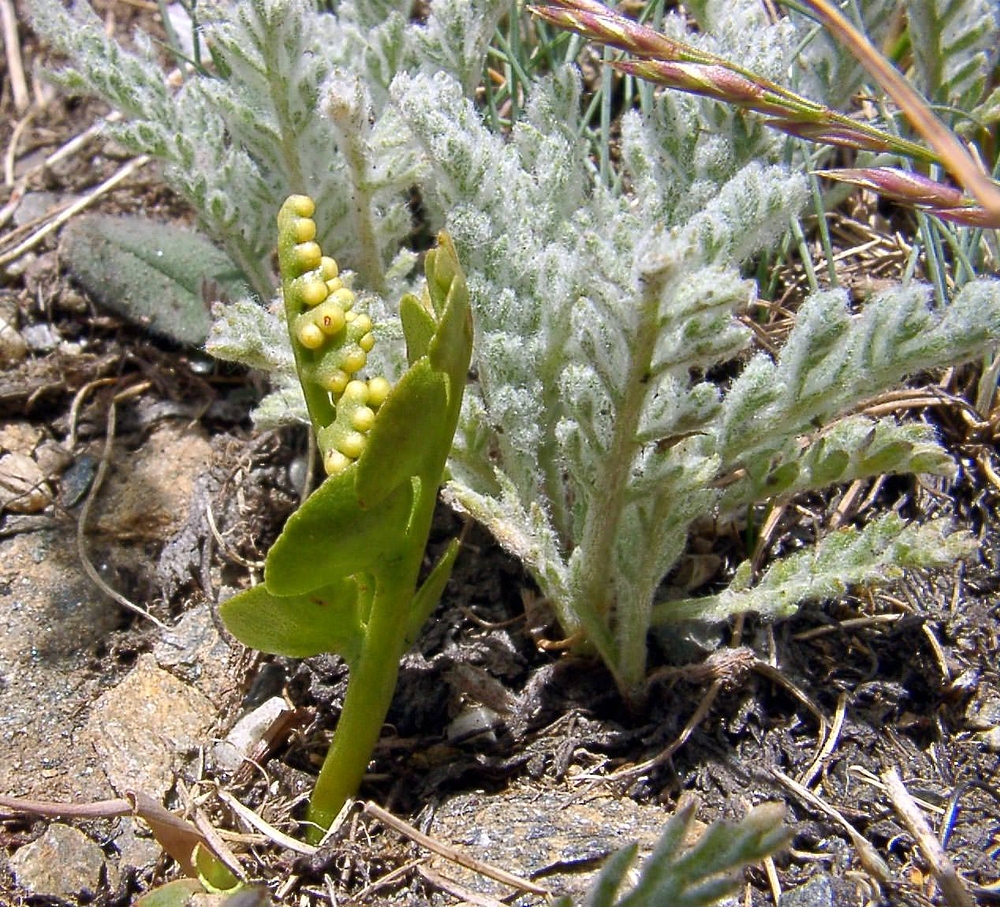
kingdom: Plantae
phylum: Tracheophyta
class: Polypodiopsida
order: Ophioglossales
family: Ophioglossaceae
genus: Botrychium
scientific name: Botrychium lunaria
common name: Moonwort
